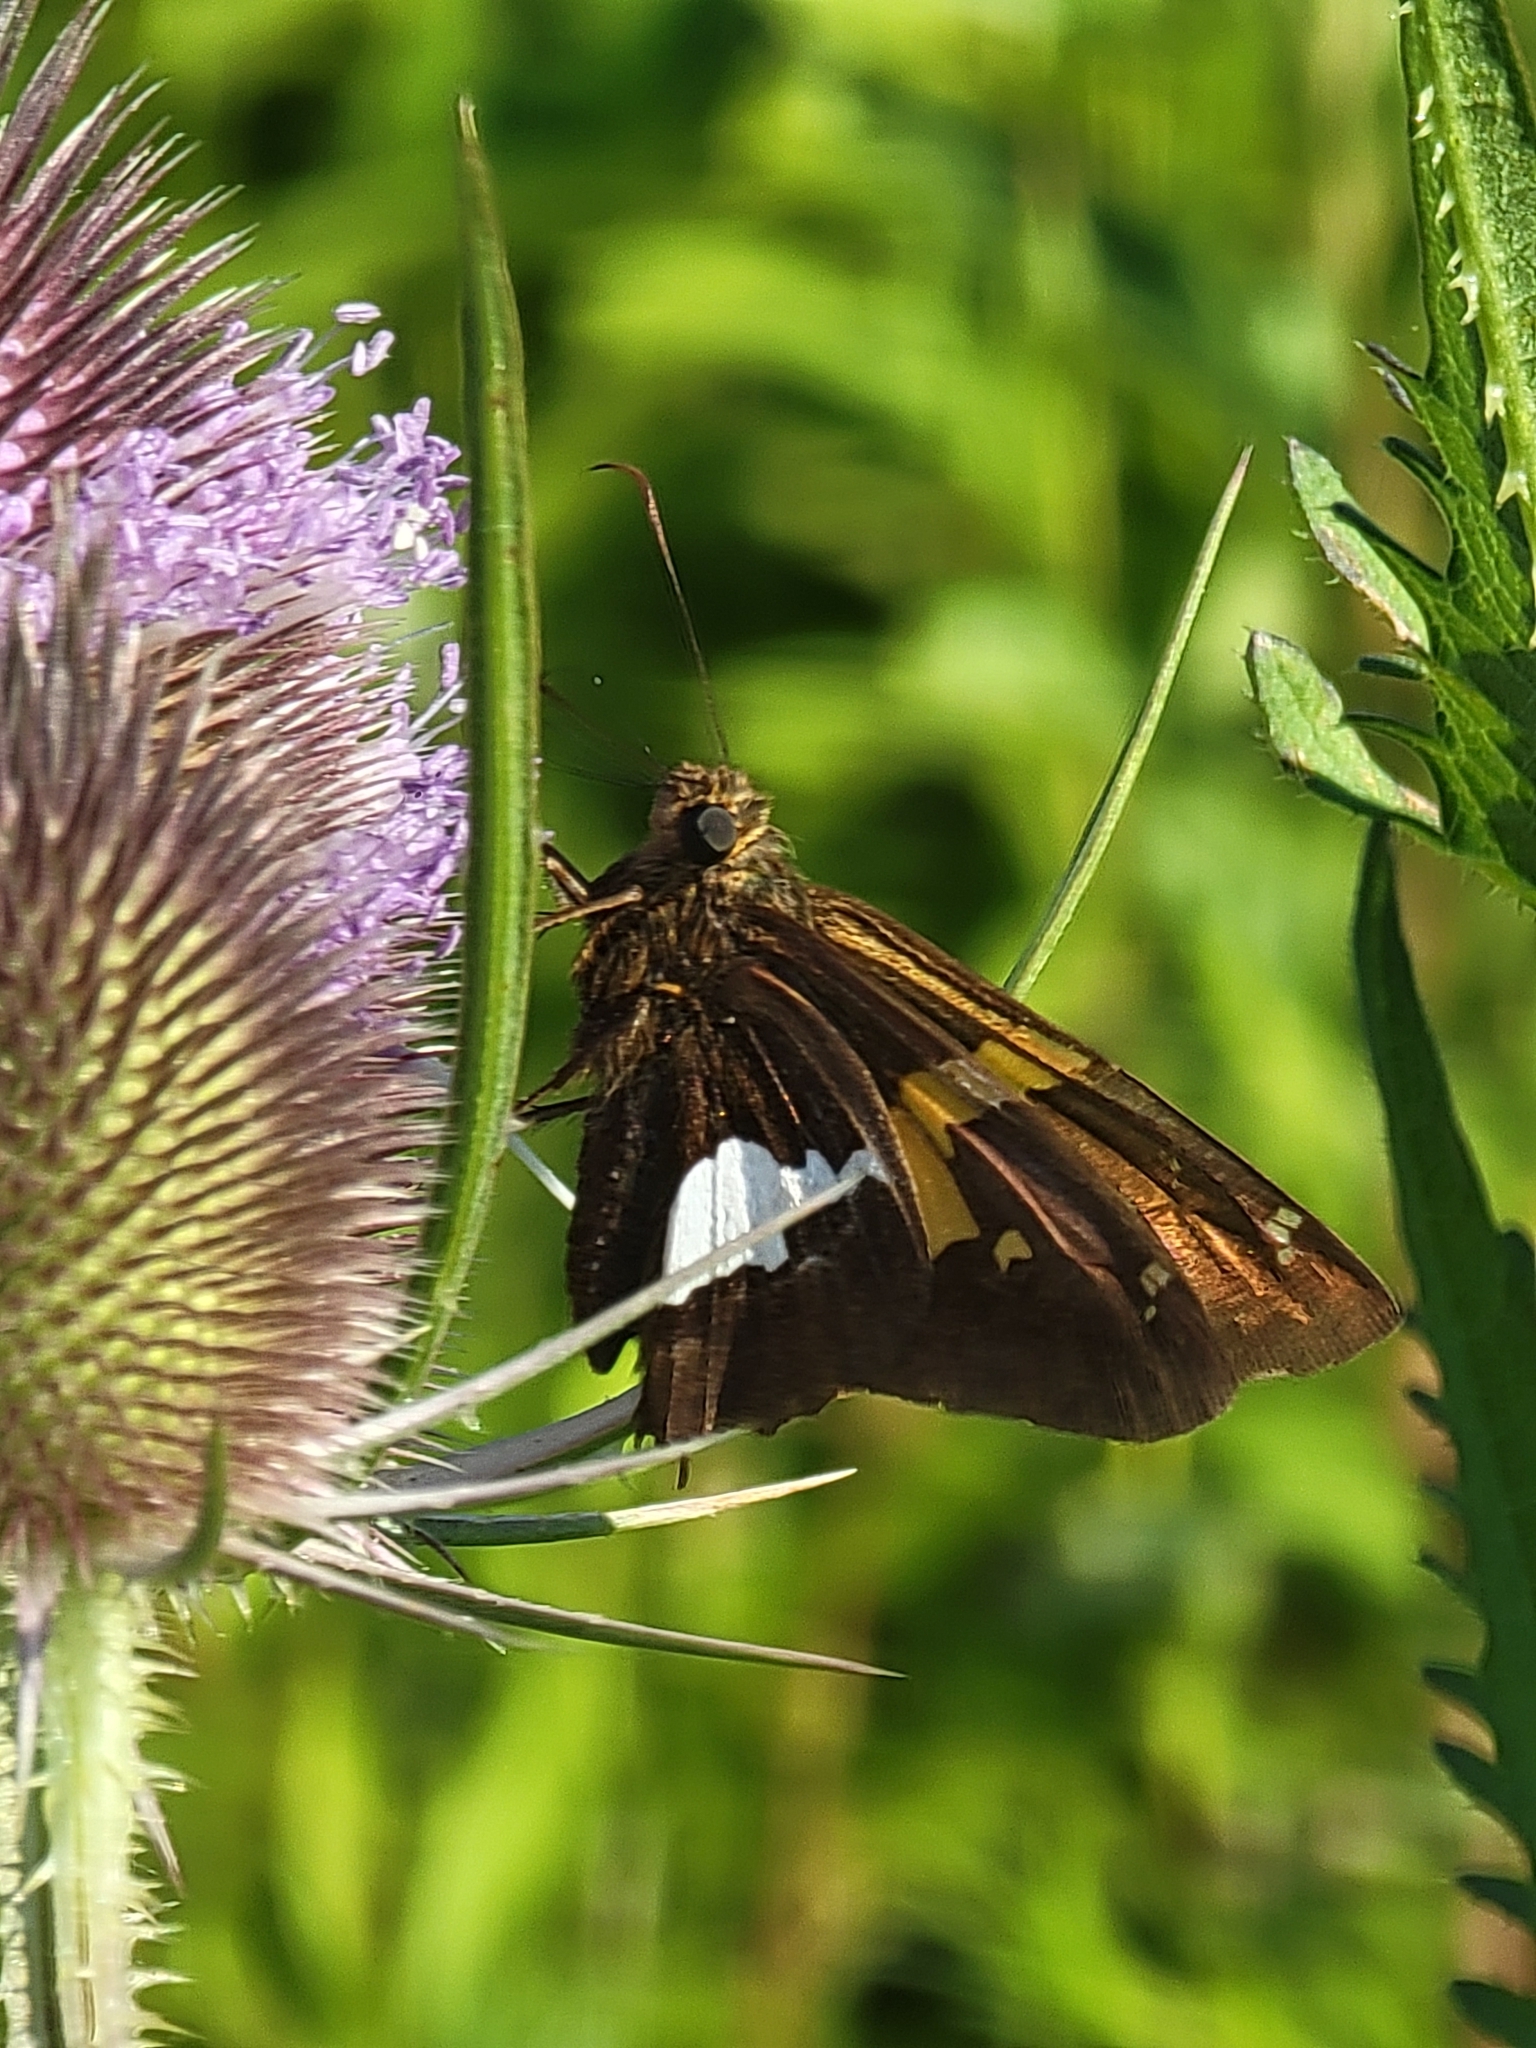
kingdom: Animalia
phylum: Arthropoda
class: Insecta
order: Lepidoptera
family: Hesperiidae
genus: Epargyreus
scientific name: Epargyreus clarus
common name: Silver-spotted skipper
